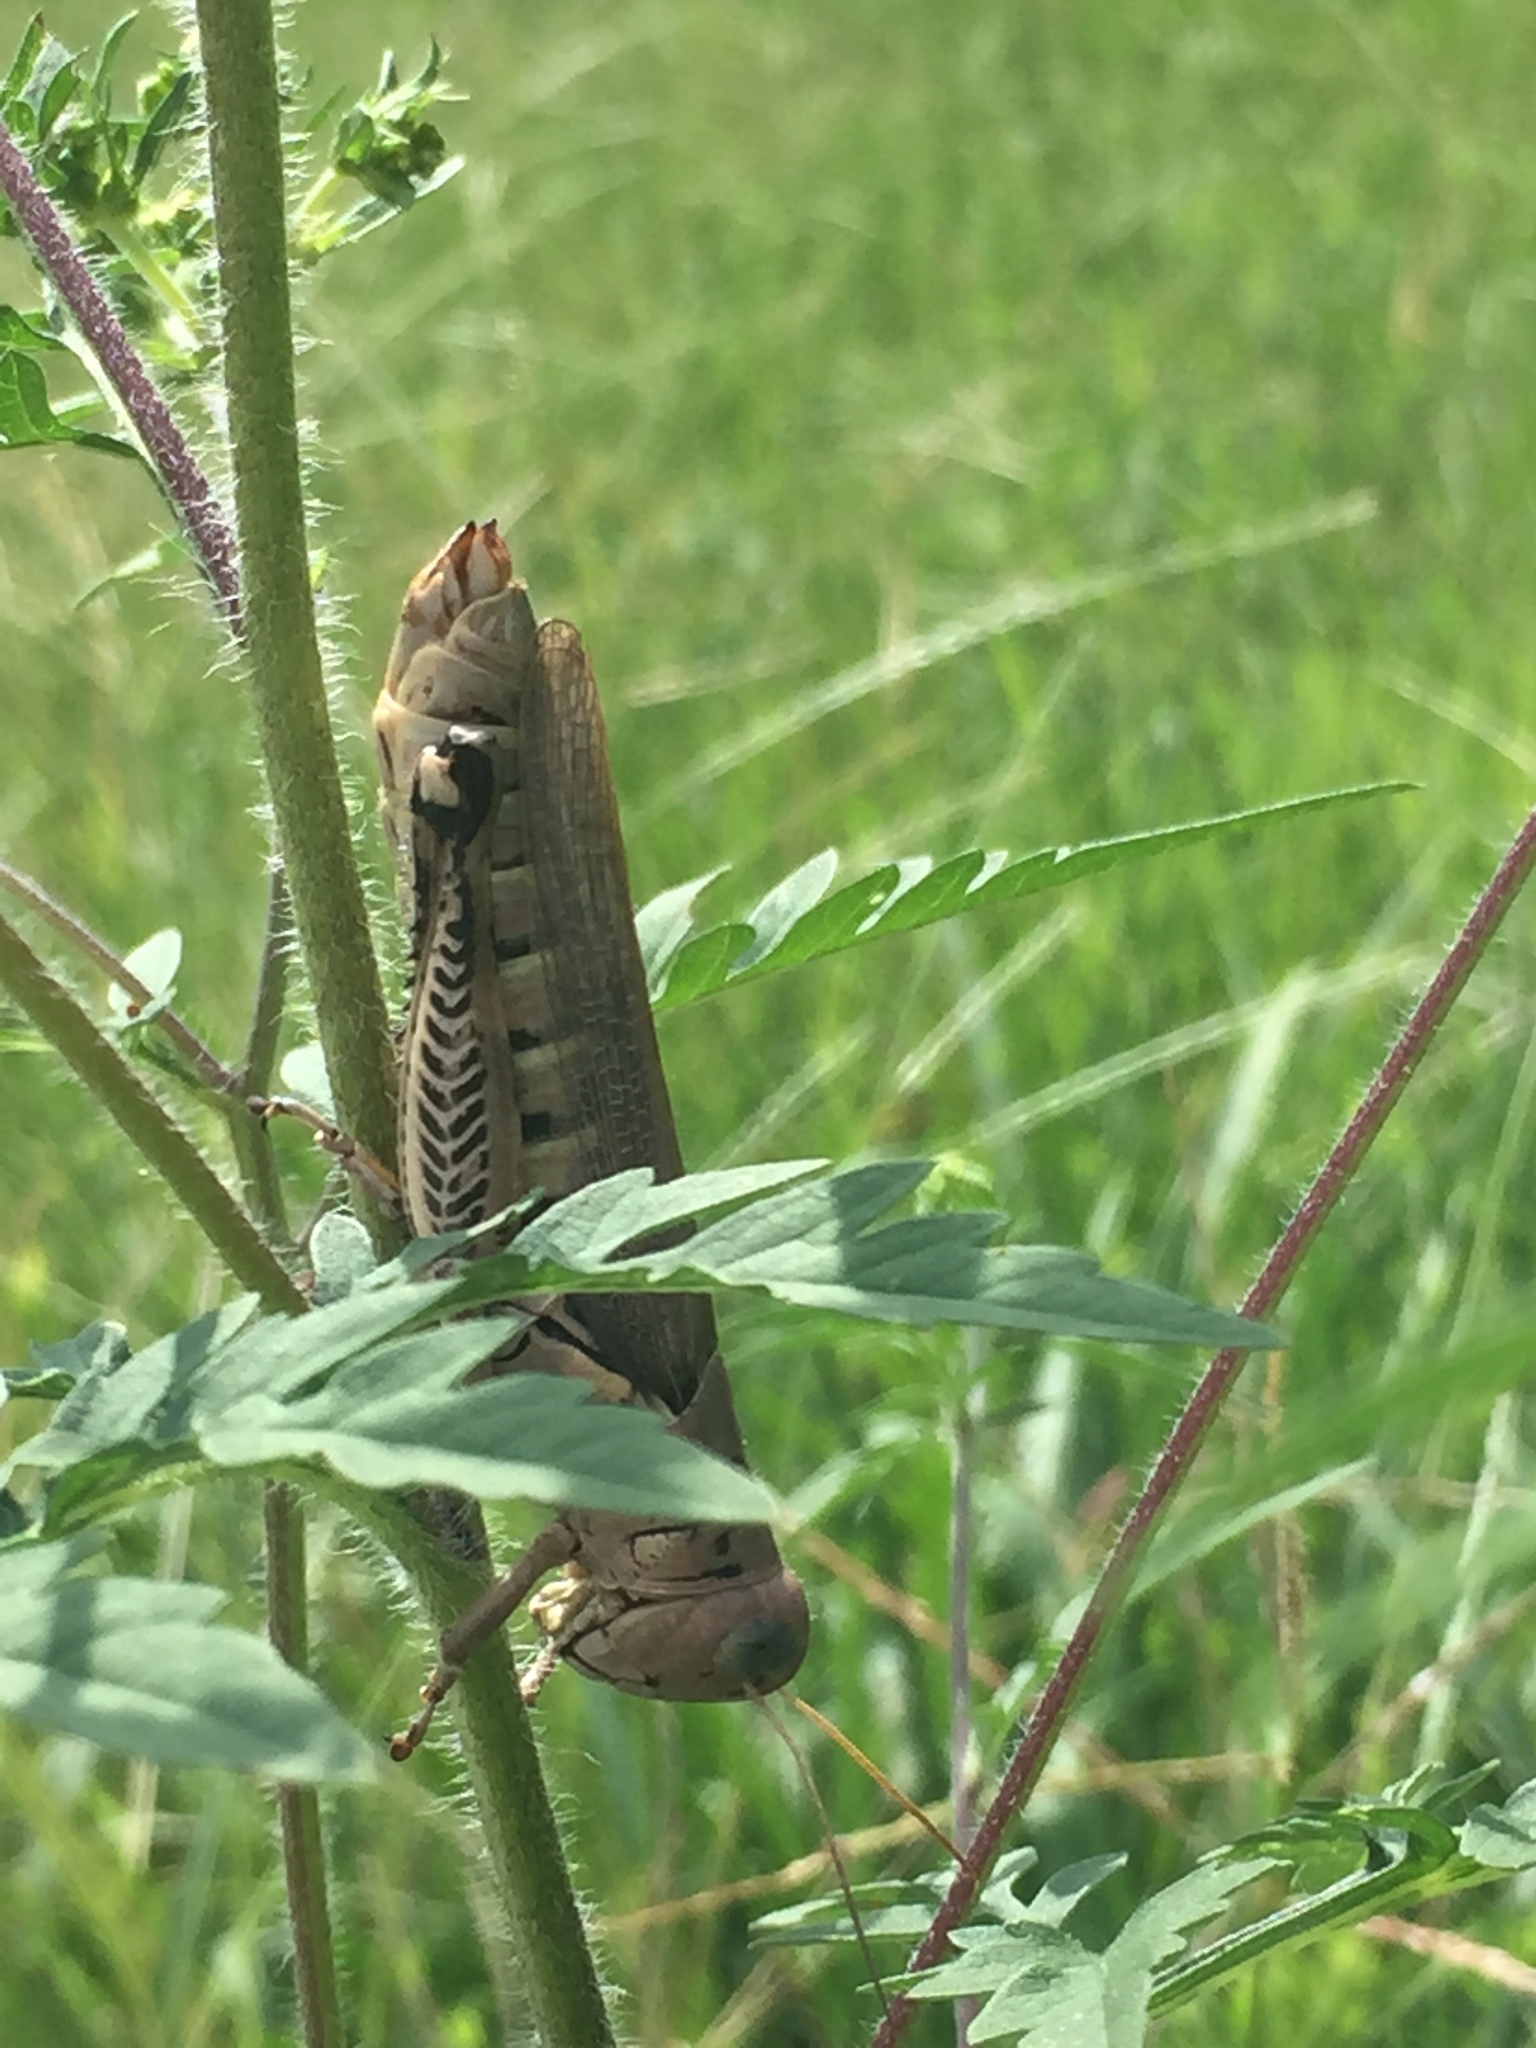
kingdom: Animalia
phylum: Arthropoda
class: Insecta
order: Orthoptera
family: Acrididae
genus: Melanoplus
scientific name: Melanoplus differentialis
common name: Differential grasshopper
